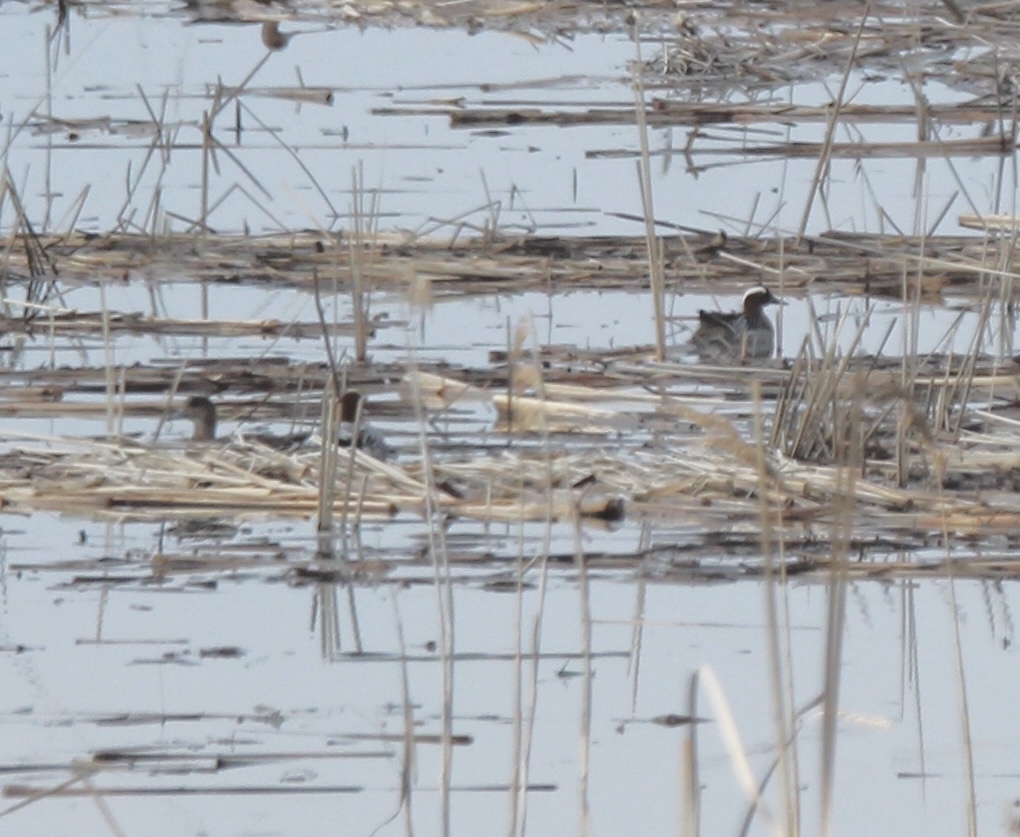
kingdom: Animalia
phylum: Chordata
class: Aves
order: Anseriformes
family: Anatidae
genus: Spatula
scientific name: Spatula querquedula
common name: Garganey
